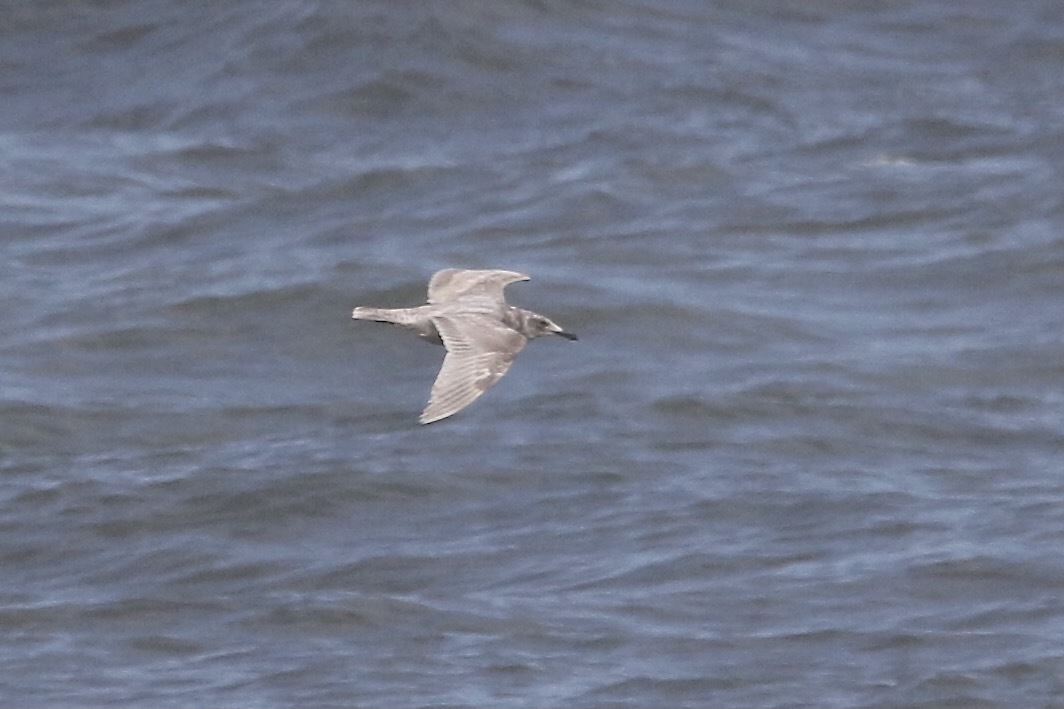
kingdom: Animalia
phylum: Chordata
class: Aves
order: Charadriiformes
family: Laridae
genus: Larus
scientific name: Larus glaucescens
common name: Glaucous-winged gull
